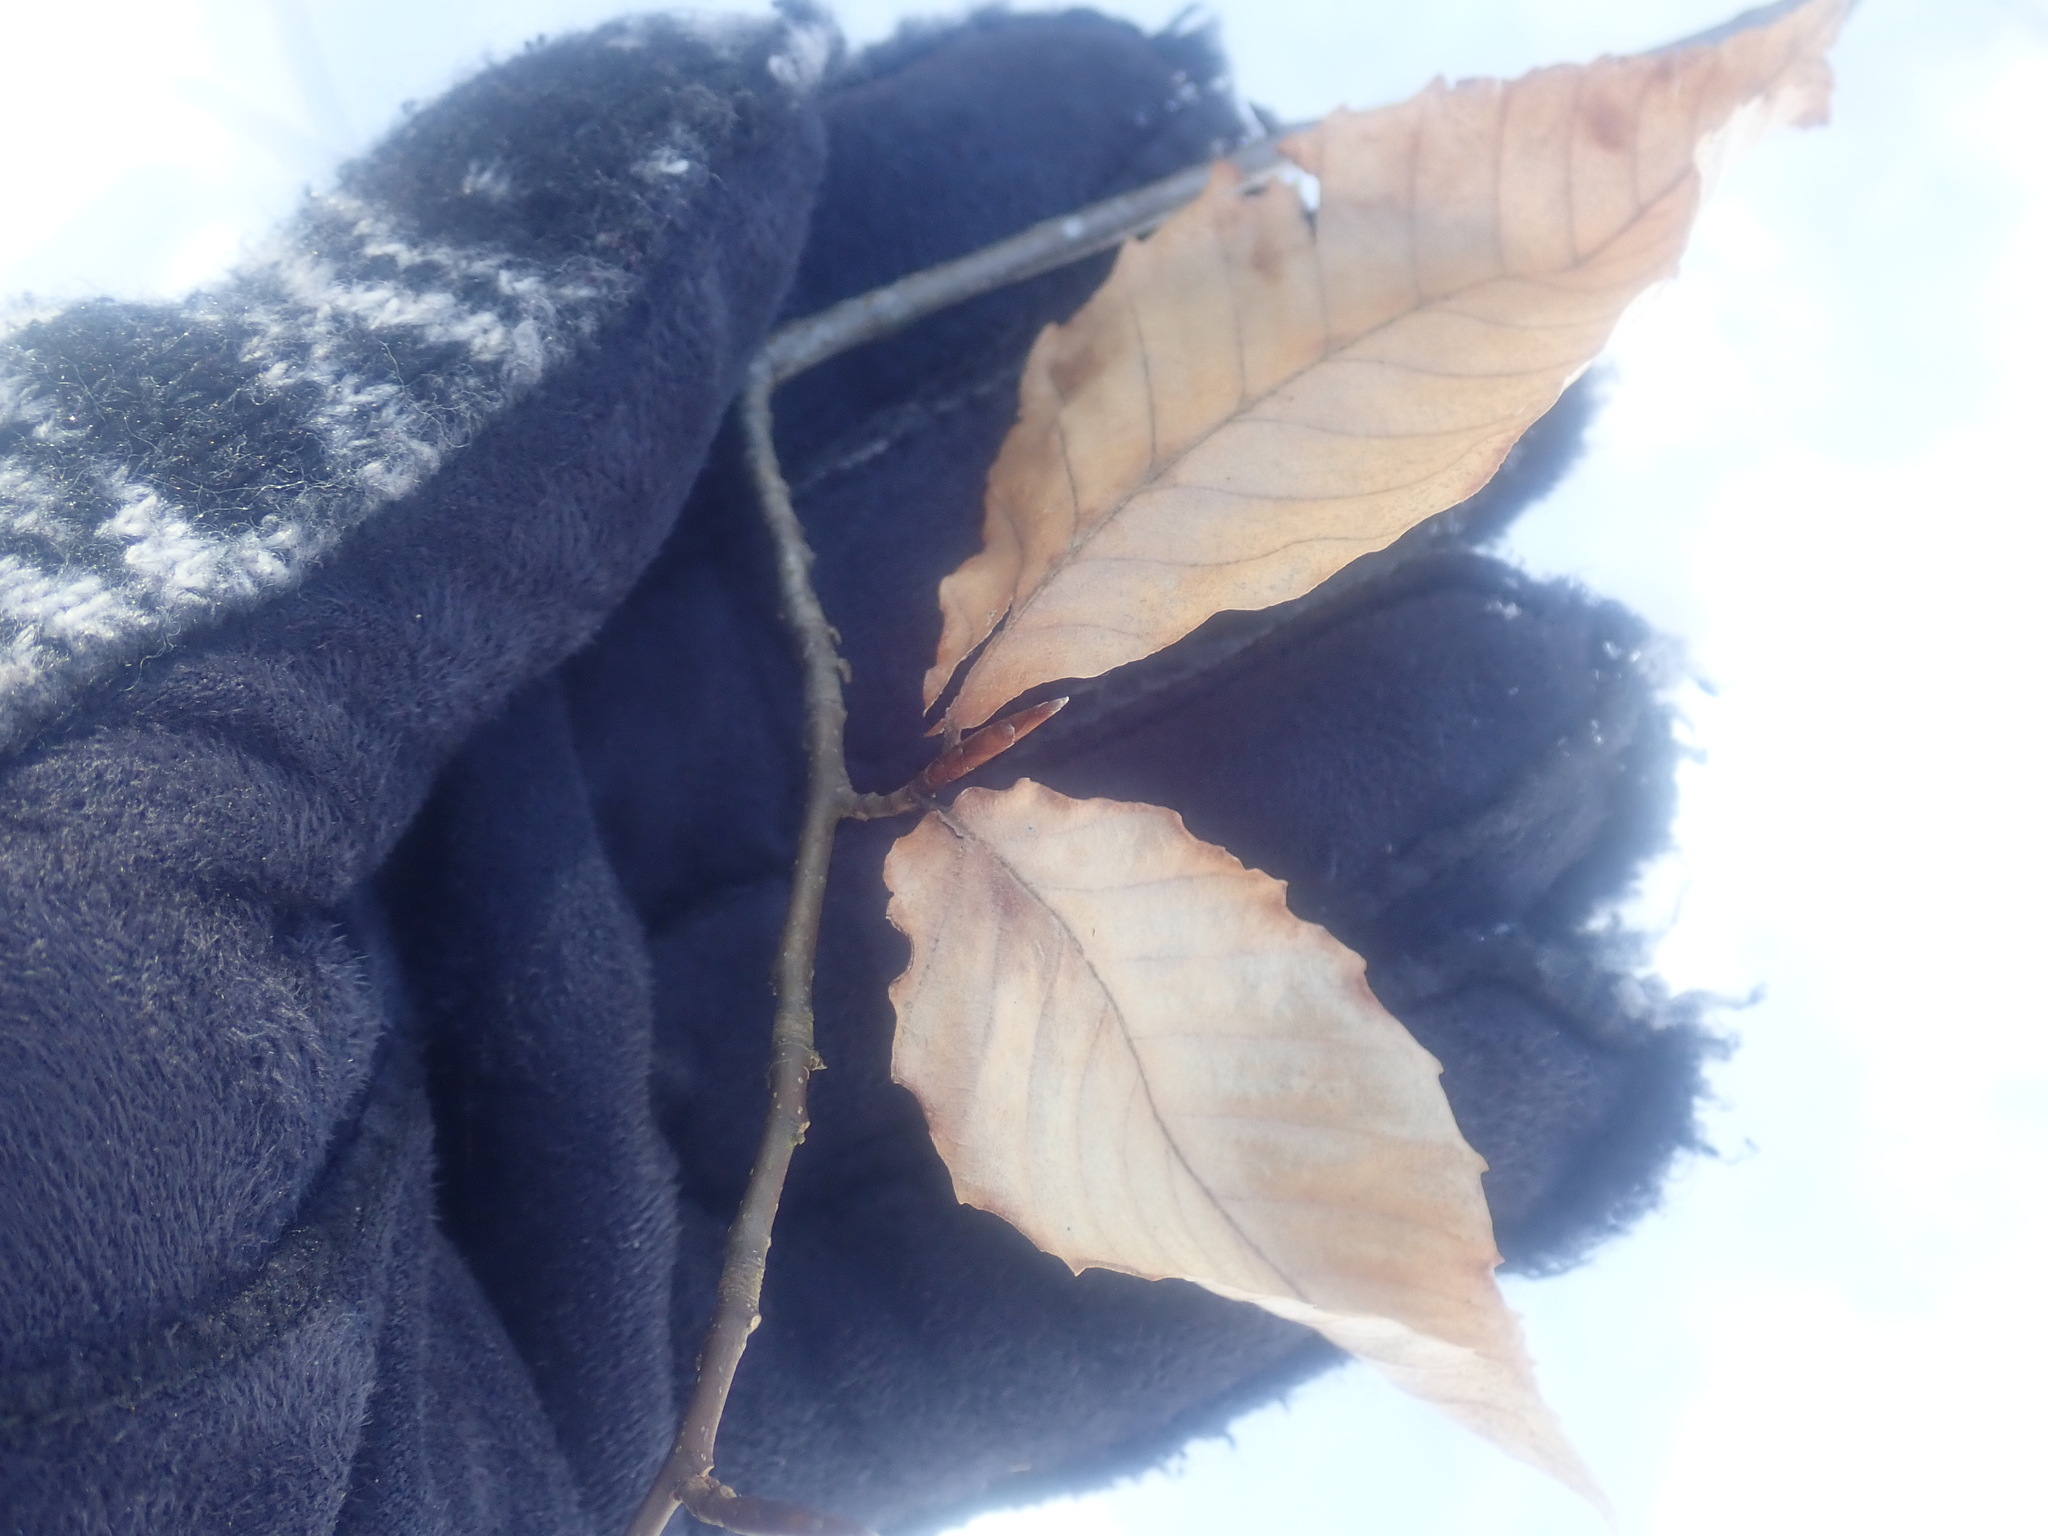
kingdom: Plantae
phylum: Tracheophyta
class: Magnoliopsida
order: Fagales
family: Fagaceae
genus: Fagus
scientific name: Fagus grandifolia
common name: American beech
